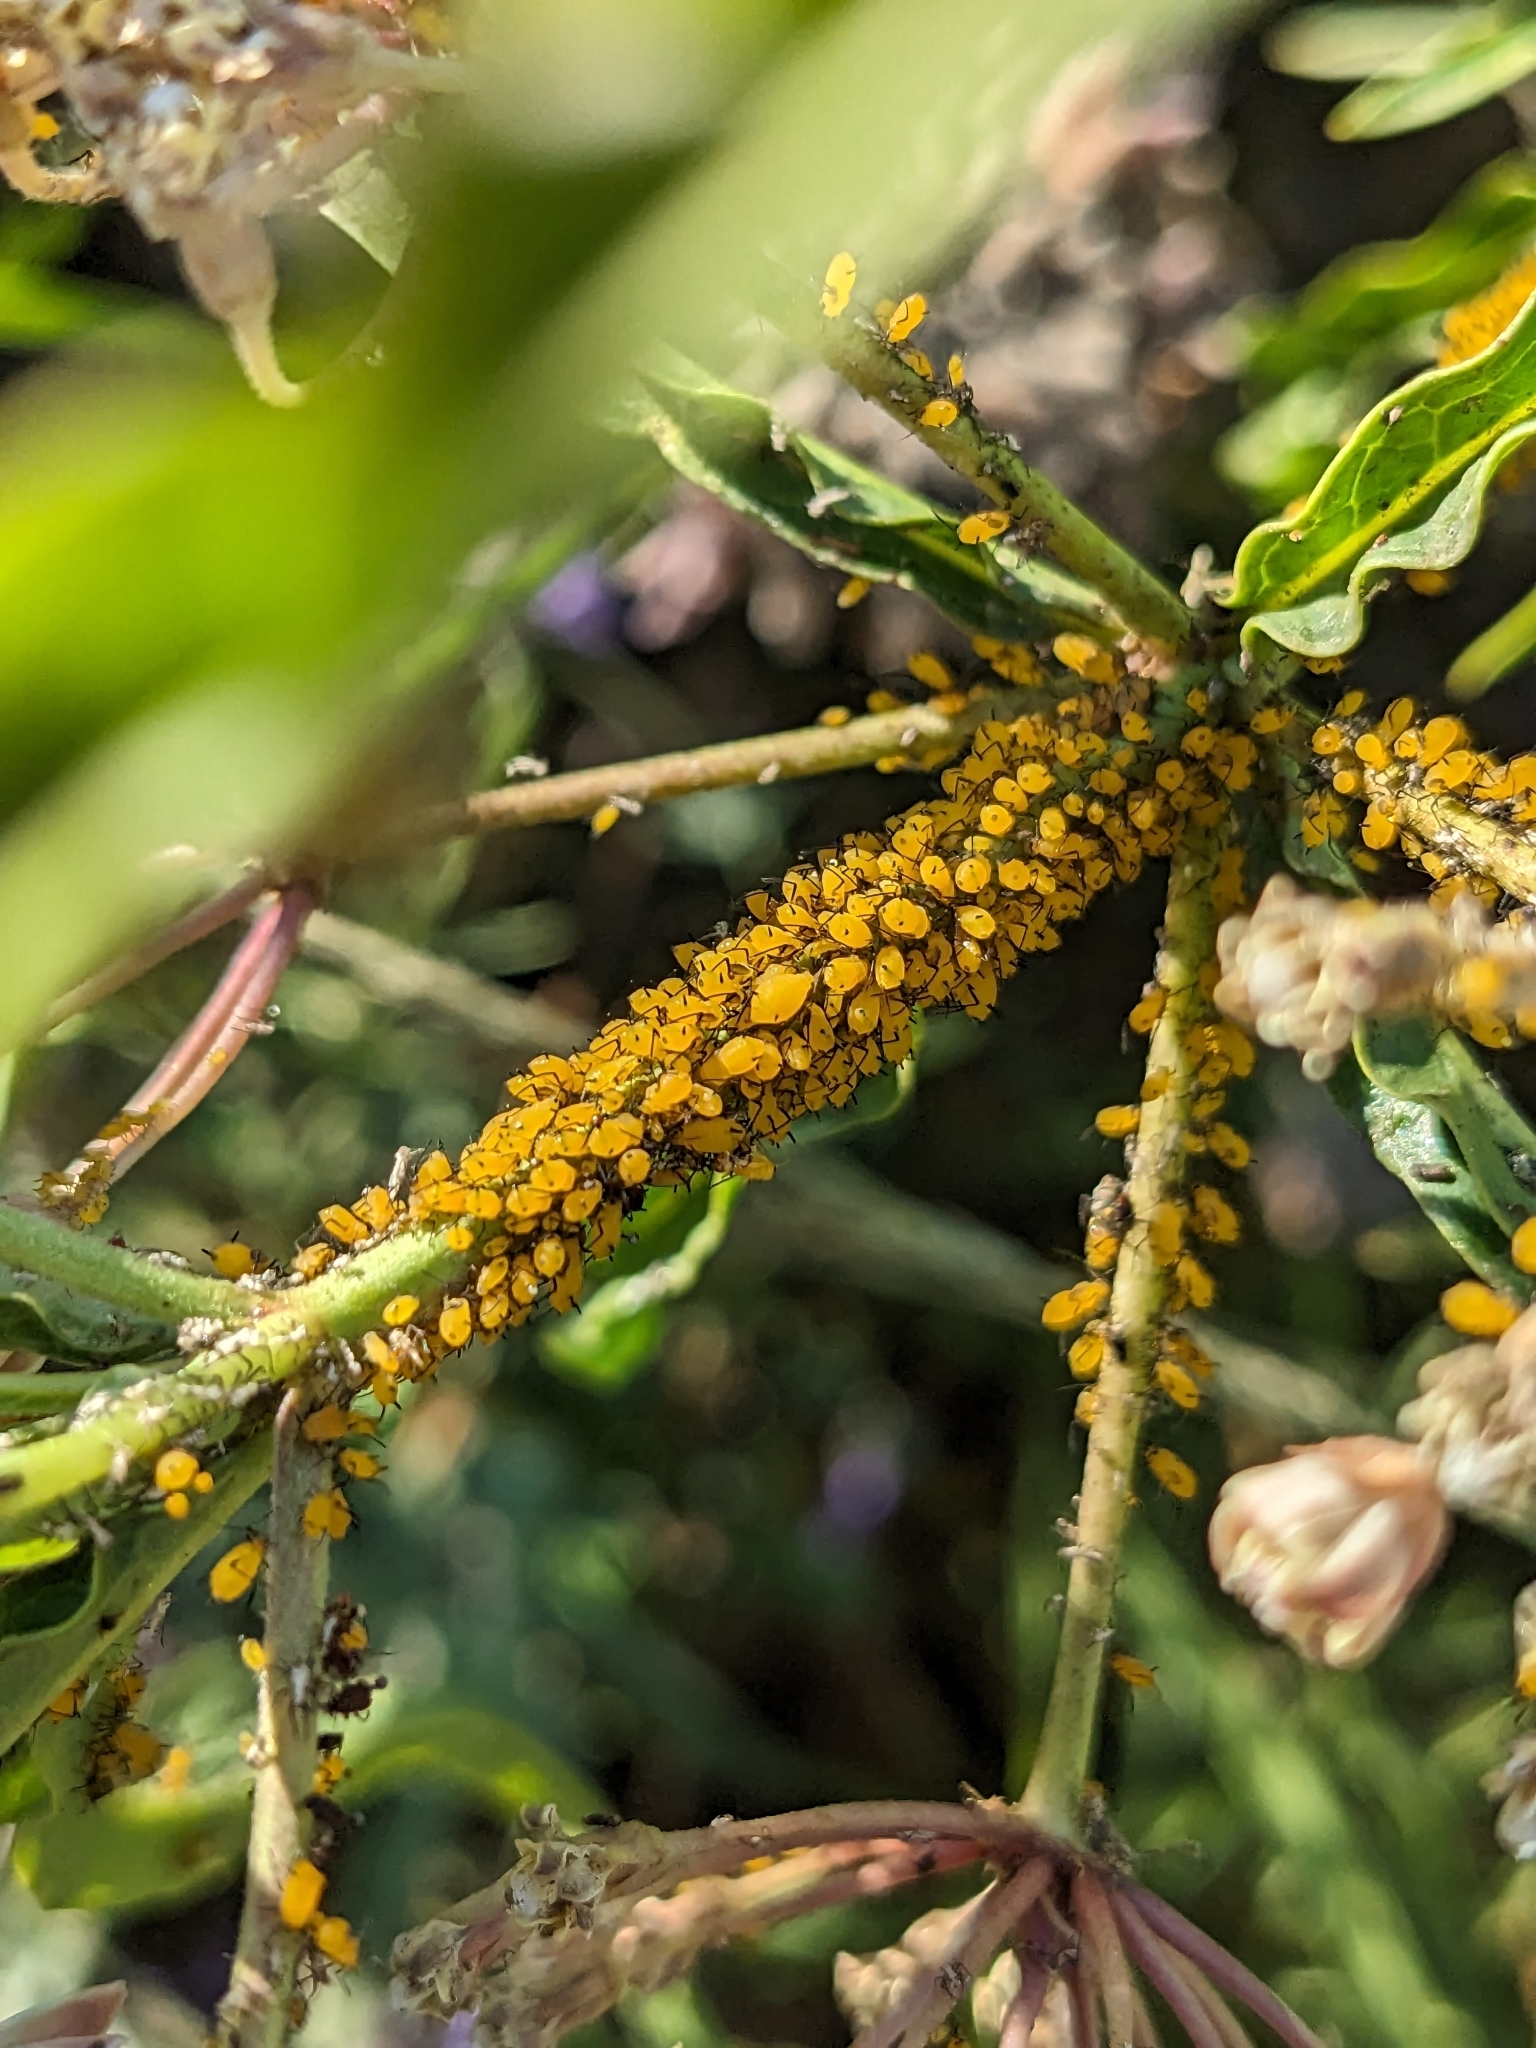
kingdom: Animalia
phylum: Arthropoda
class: Insecta
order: Hemiptera
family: Aphididae
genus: Aphis
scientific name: Aphis nerii
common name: Oleander aphid
